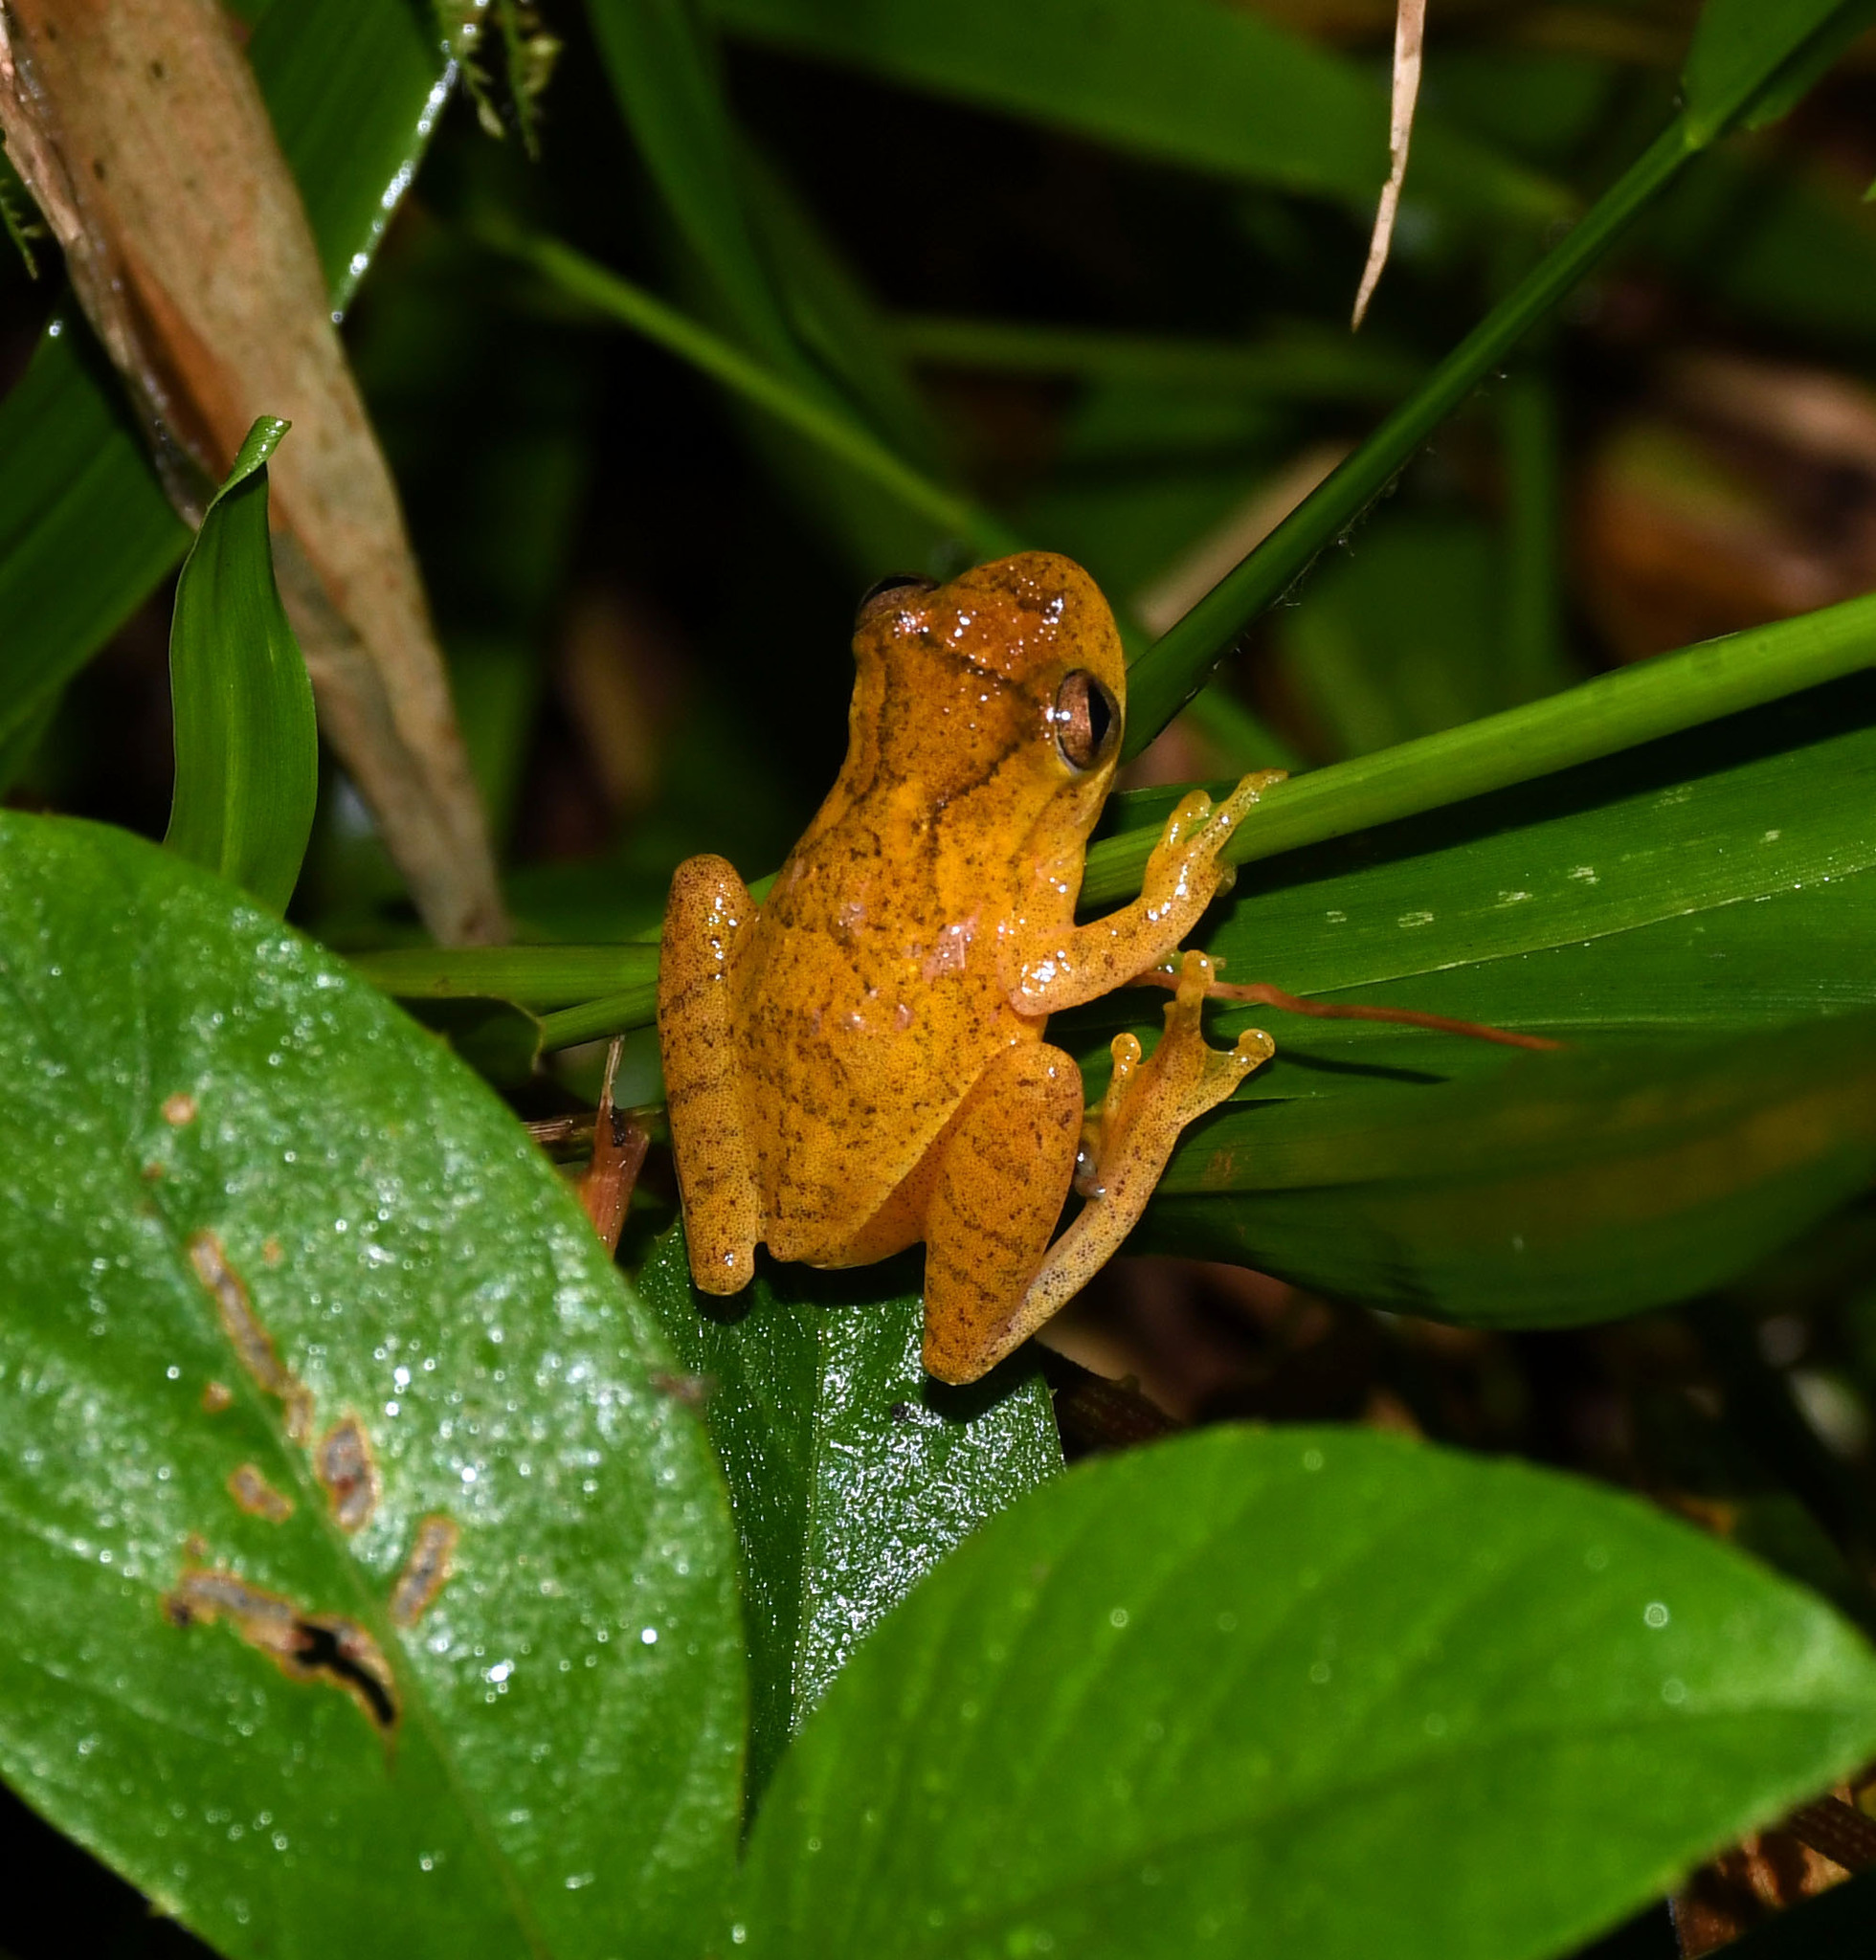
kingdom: Animalia
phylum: Chordata
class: Amphibia
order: Anura
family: Hylidae
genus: Dendropsophus
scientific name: Dendropsophus minutus
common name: Lesser treefrog
